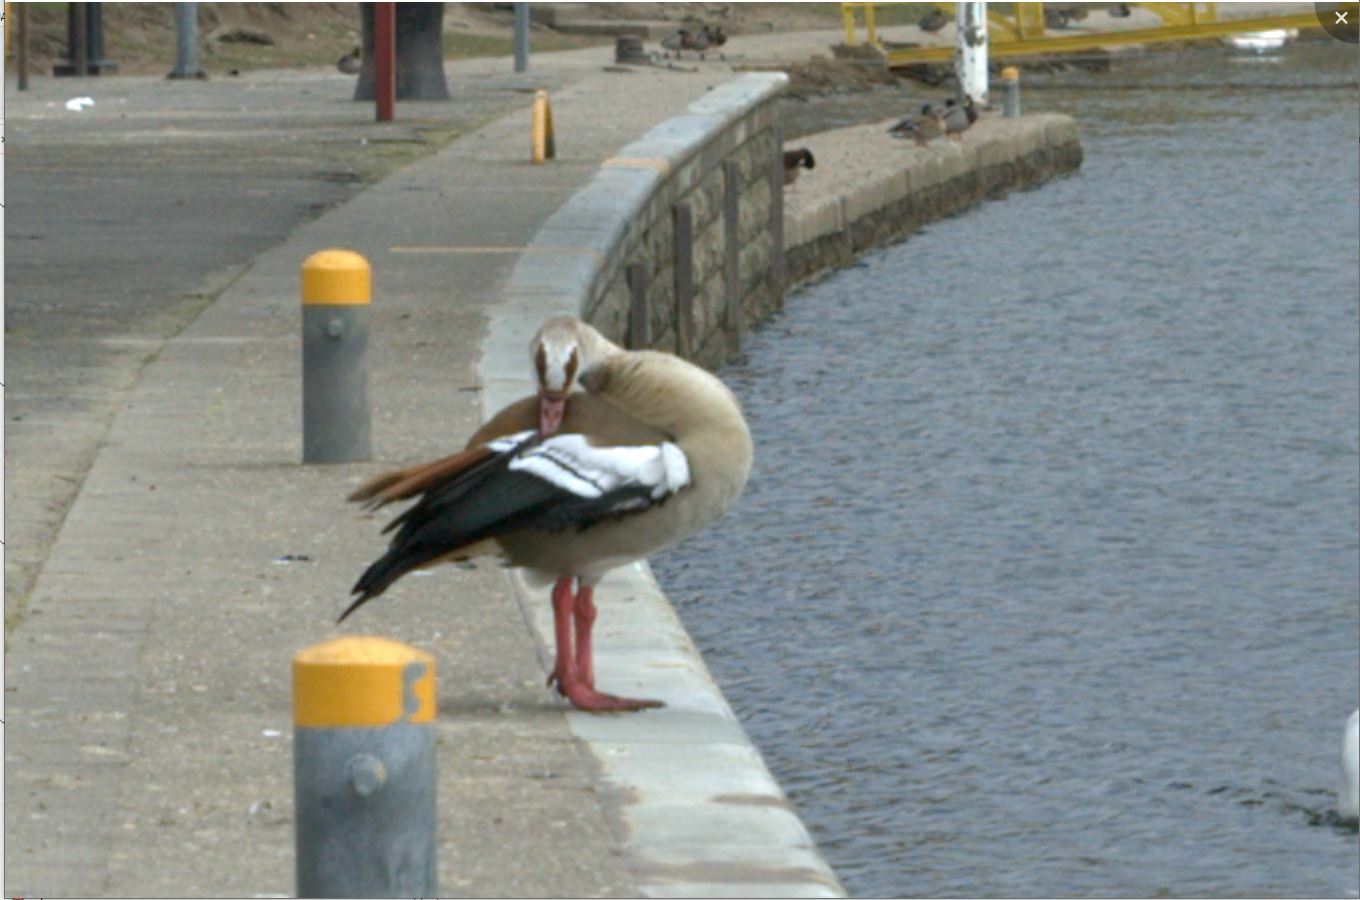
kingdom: Animalia
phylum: Chordata
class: Aves
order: Anseriformes
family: Anatidae
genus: Alopochen
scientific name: Alopochen aegyptiaca
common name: Egyptian goose
